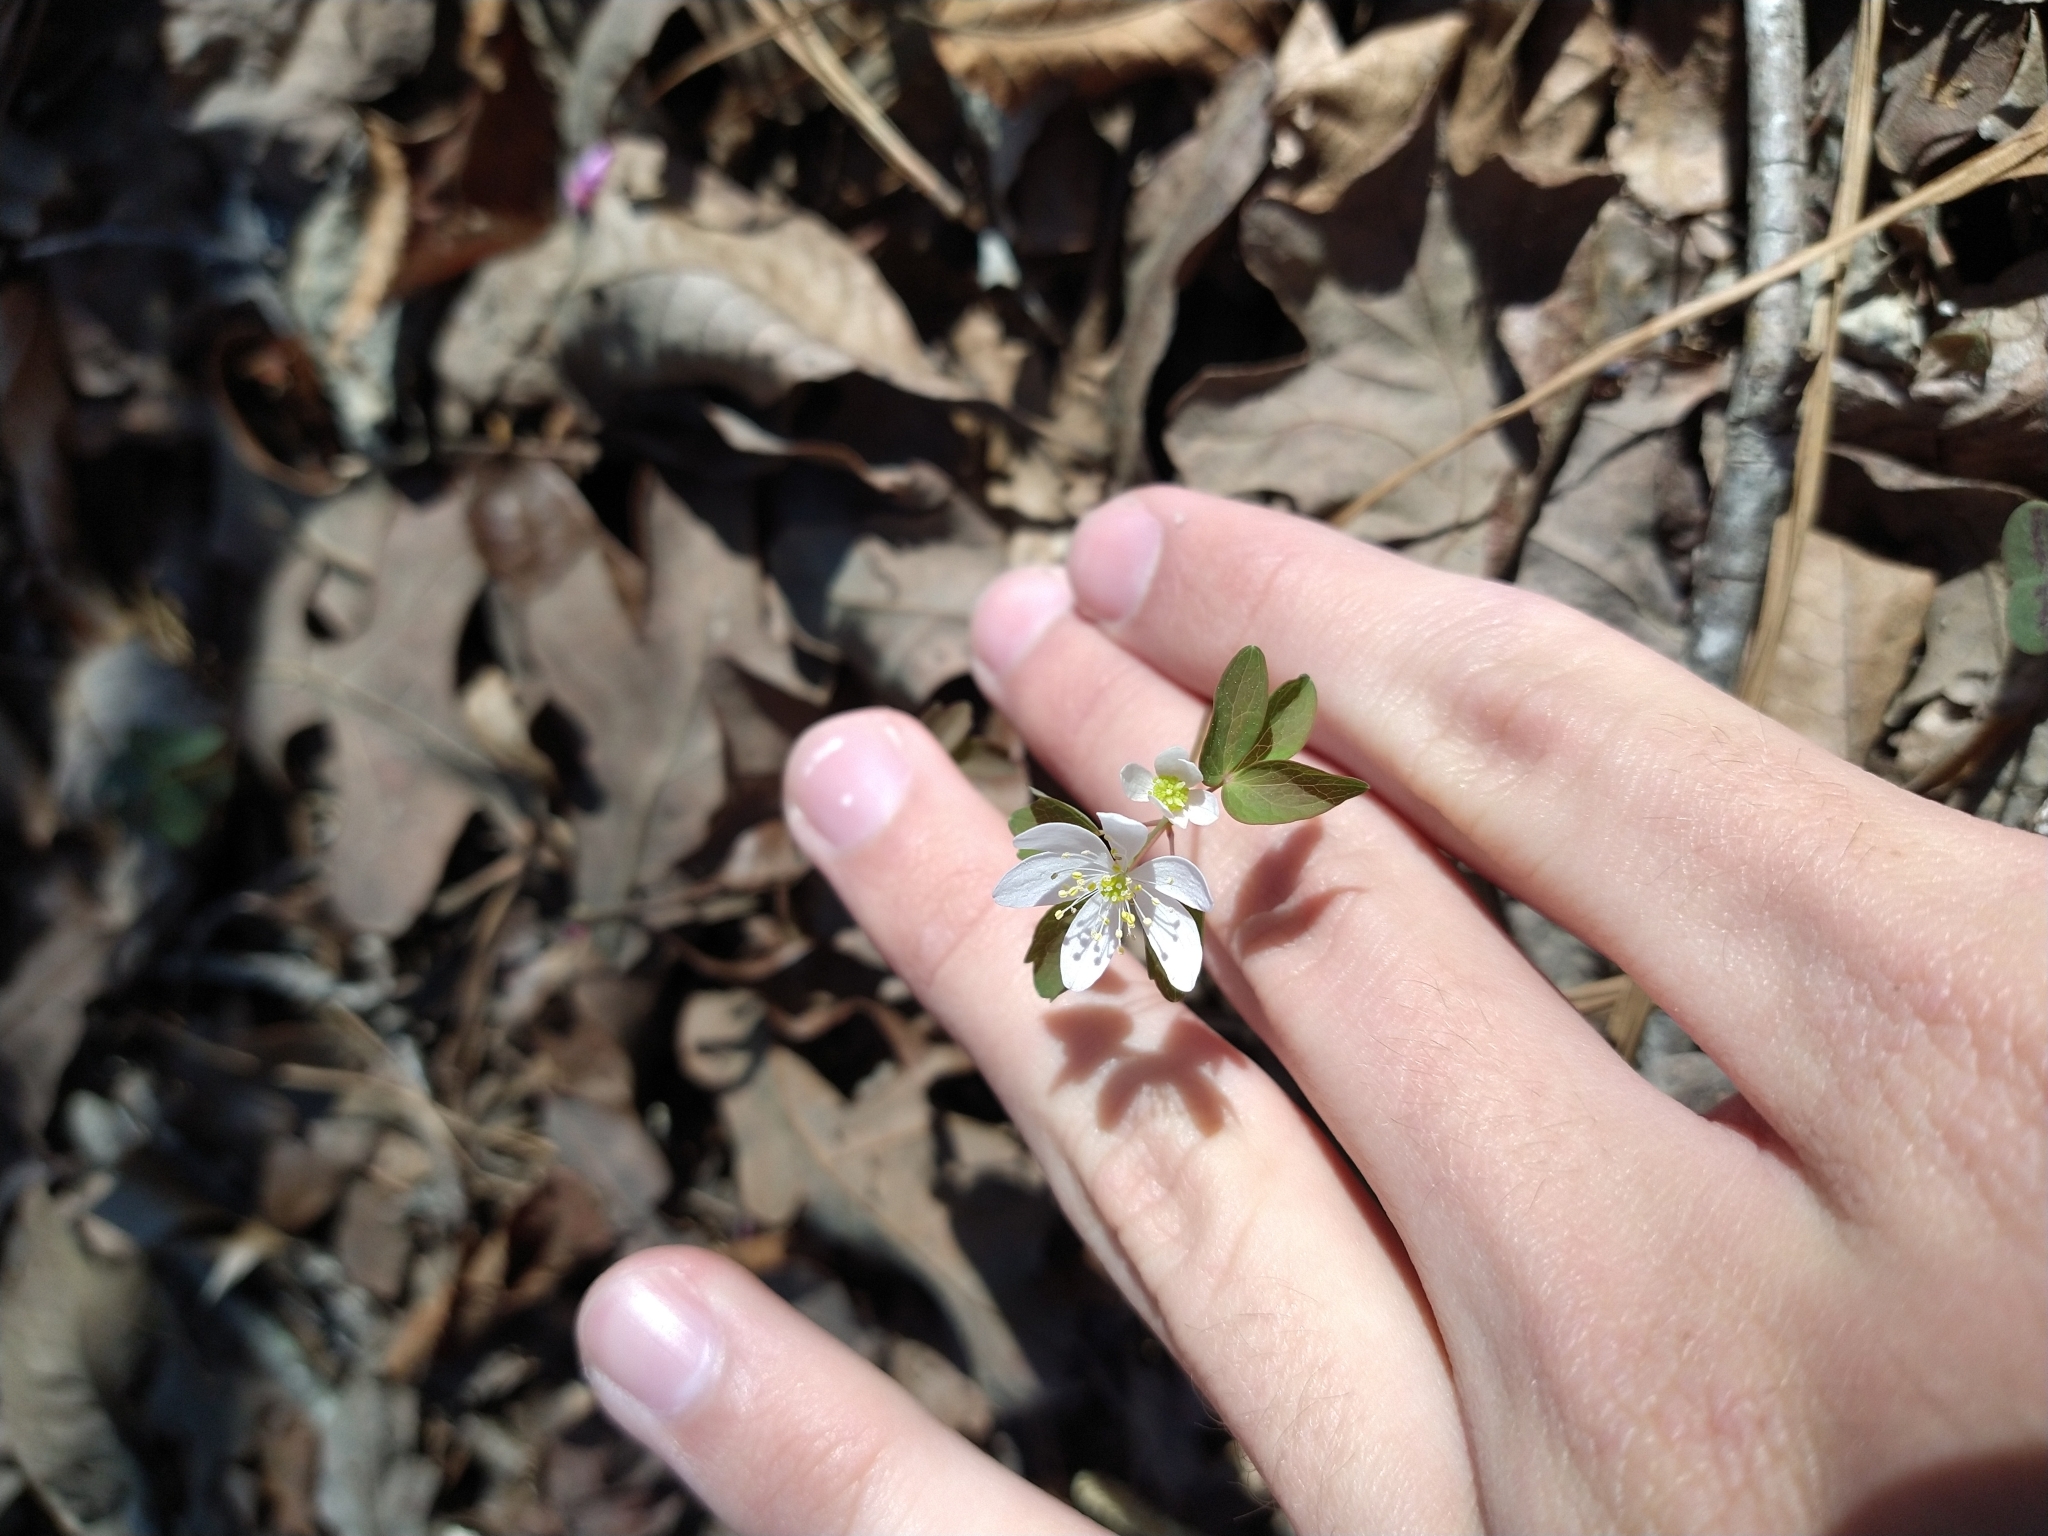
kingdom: Plantae
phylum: Tracheophyta
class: Magnoliopsida
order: Ranunculales
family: Ranunculaceae
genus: Thalictrum
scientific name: Thalictrum thalictroides
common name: Rue-anemone
